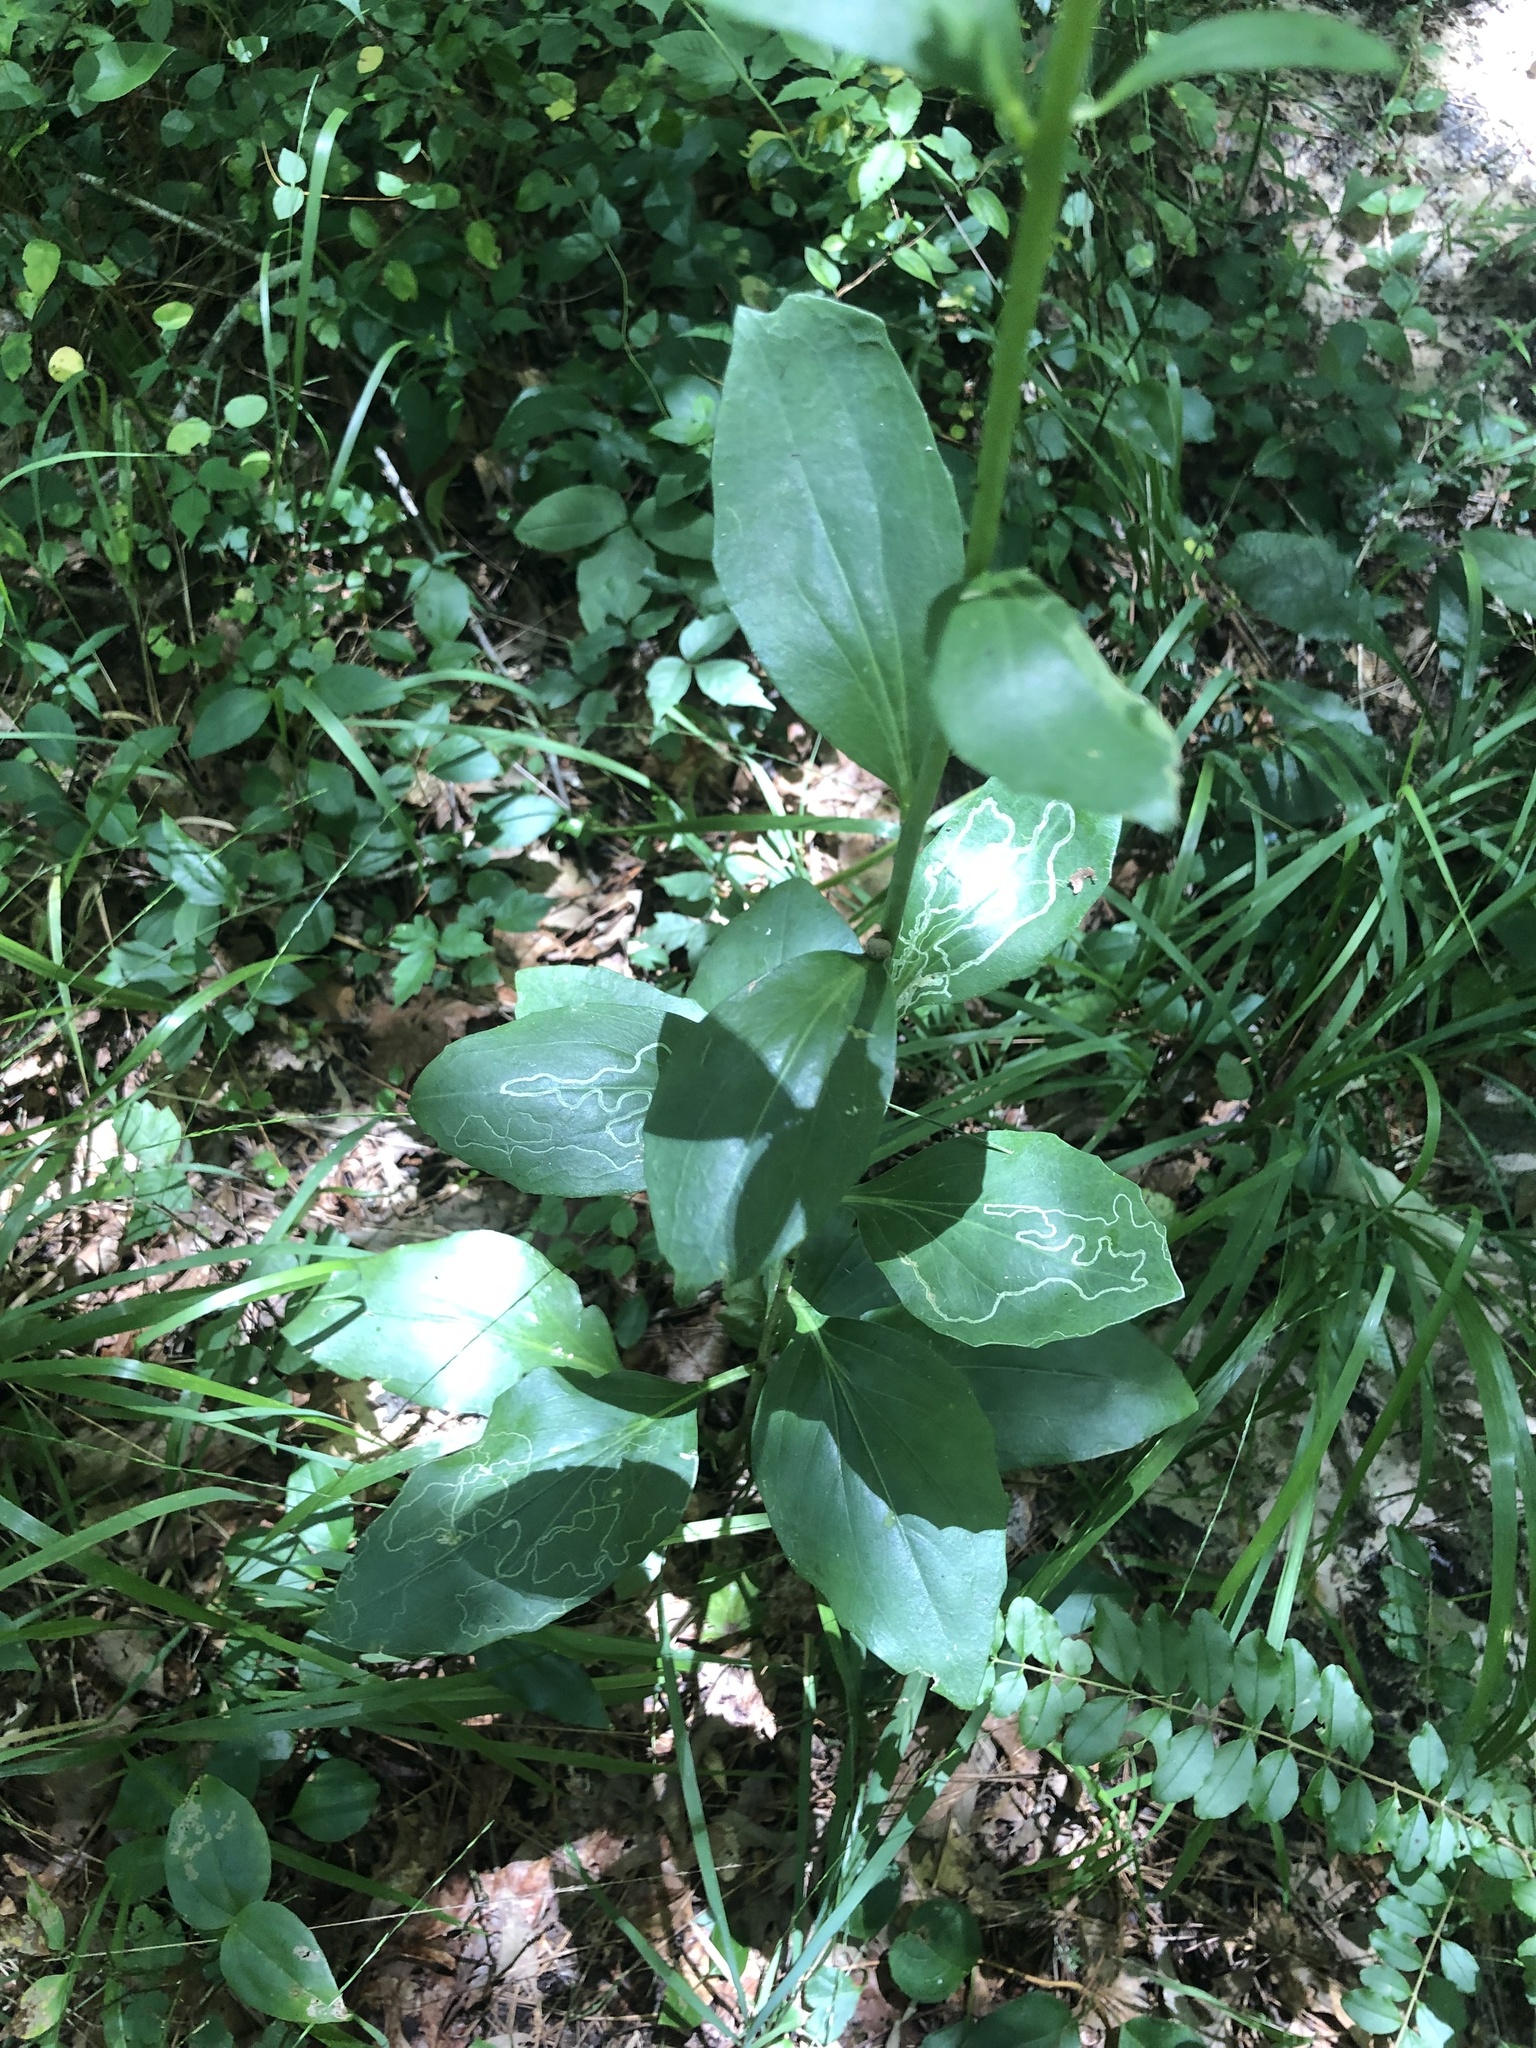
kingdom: Plantae
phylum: Tracheophyta
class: Magnoliopsida
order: Asterales
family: Asteraceae
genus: Arnoglossum
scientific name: Arnoglossum ovatum
